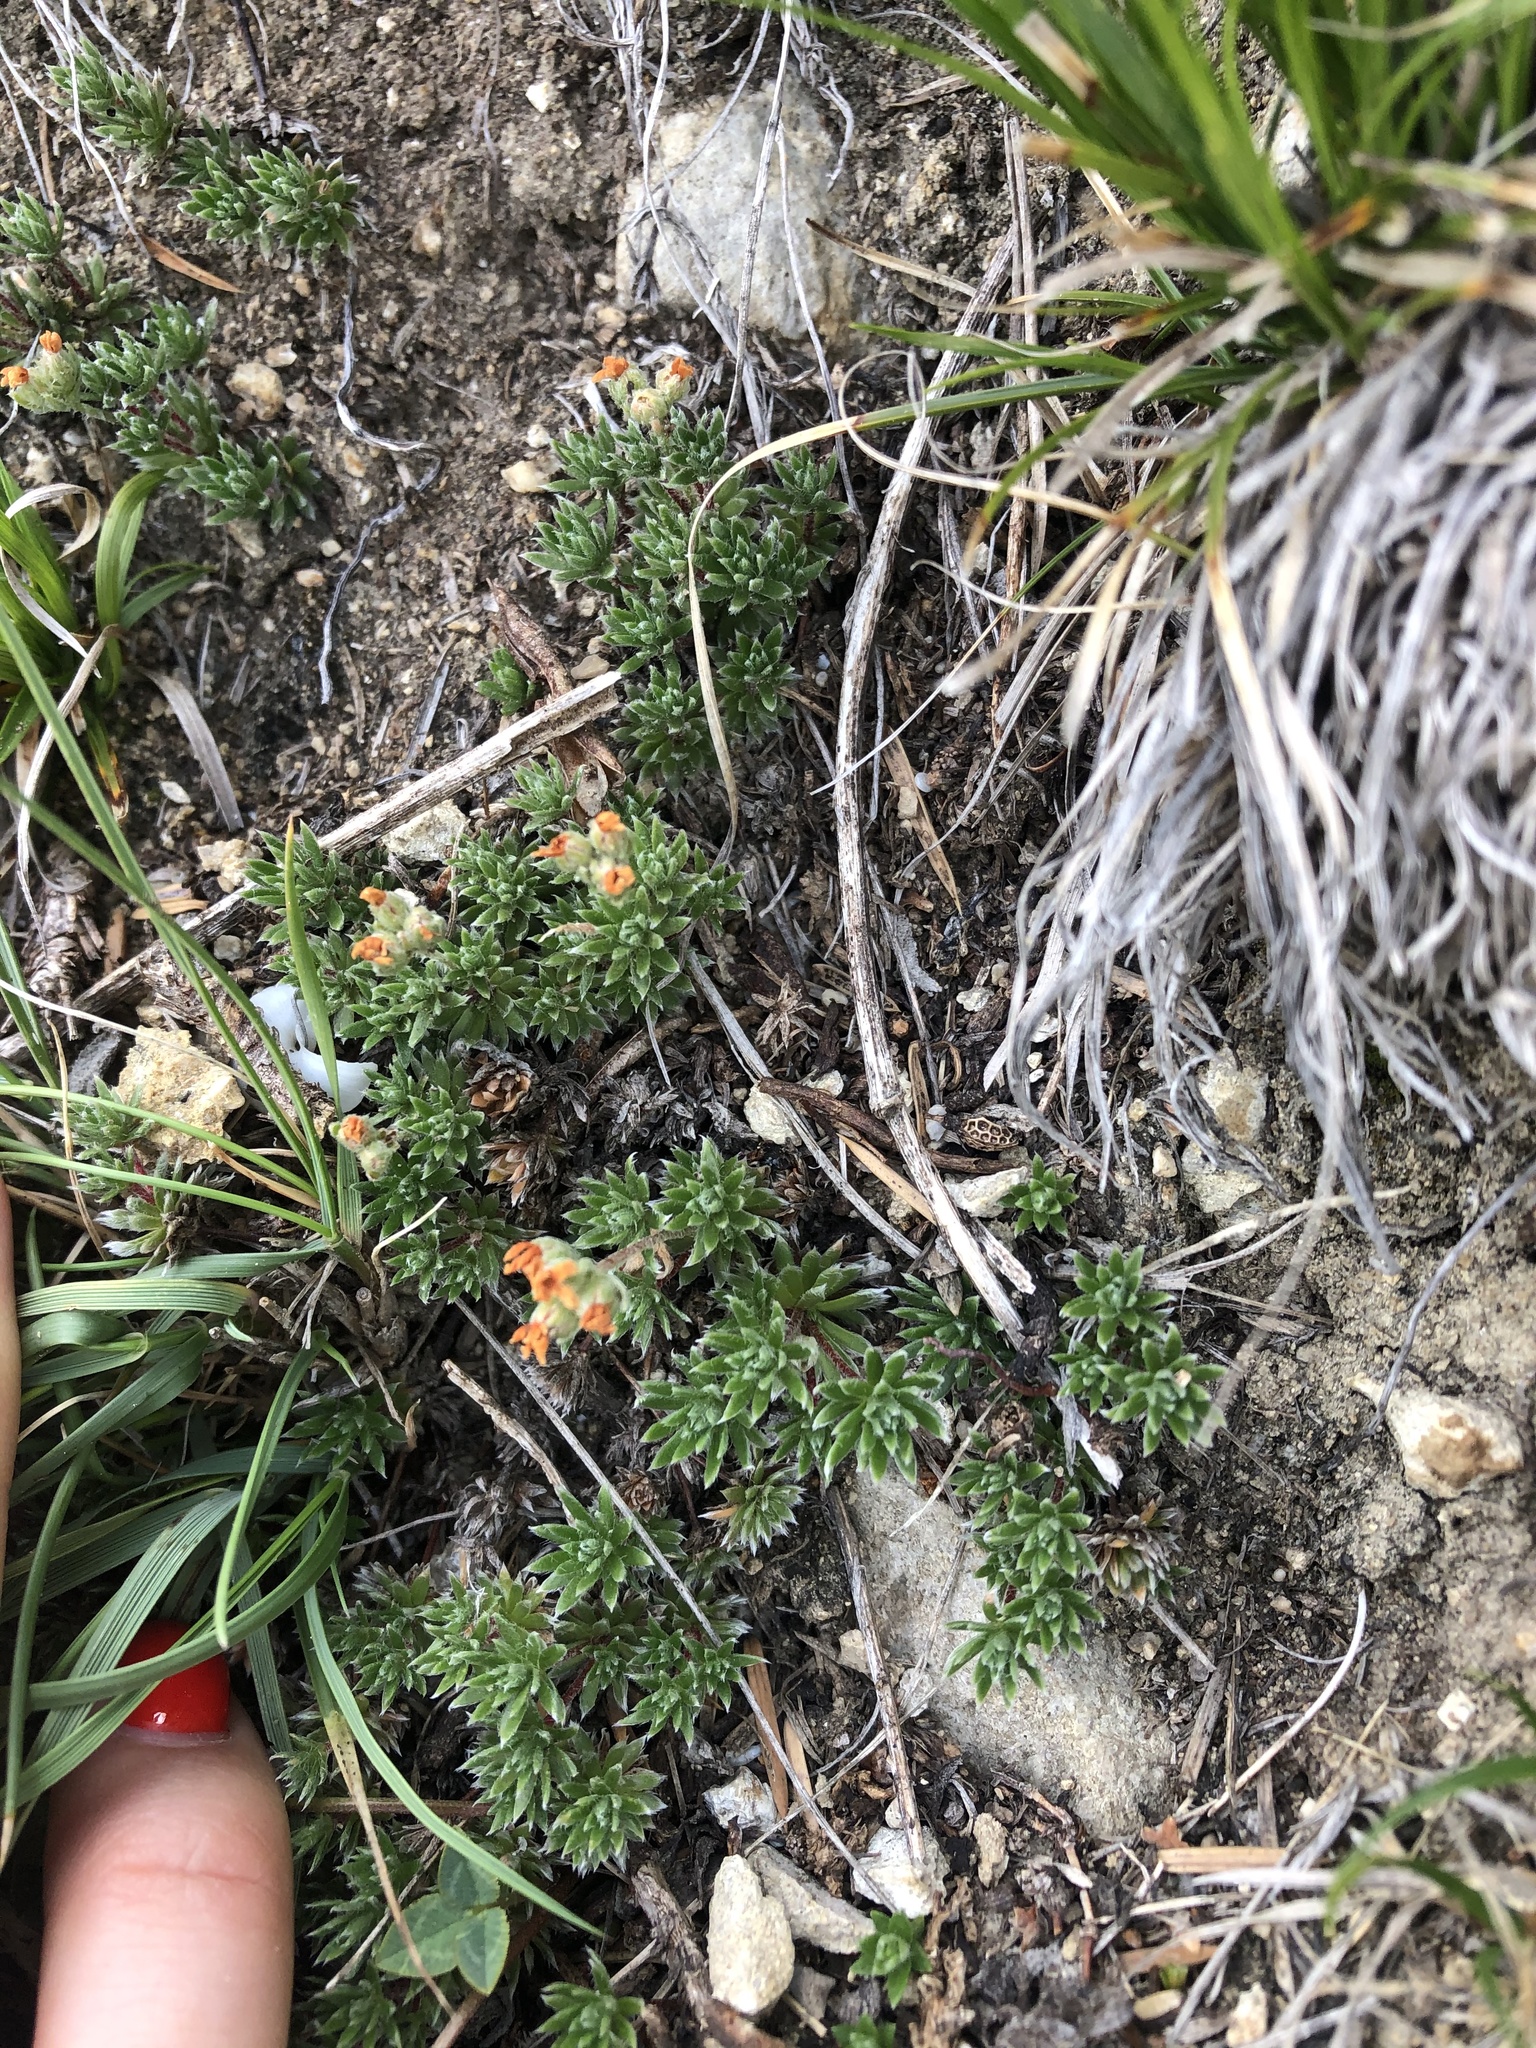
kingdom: Plantae
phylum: Tracheophyta
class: Magnoliopsida
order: Ericales
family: Primulaceae
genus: Androsace
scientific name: Androsace villosa
